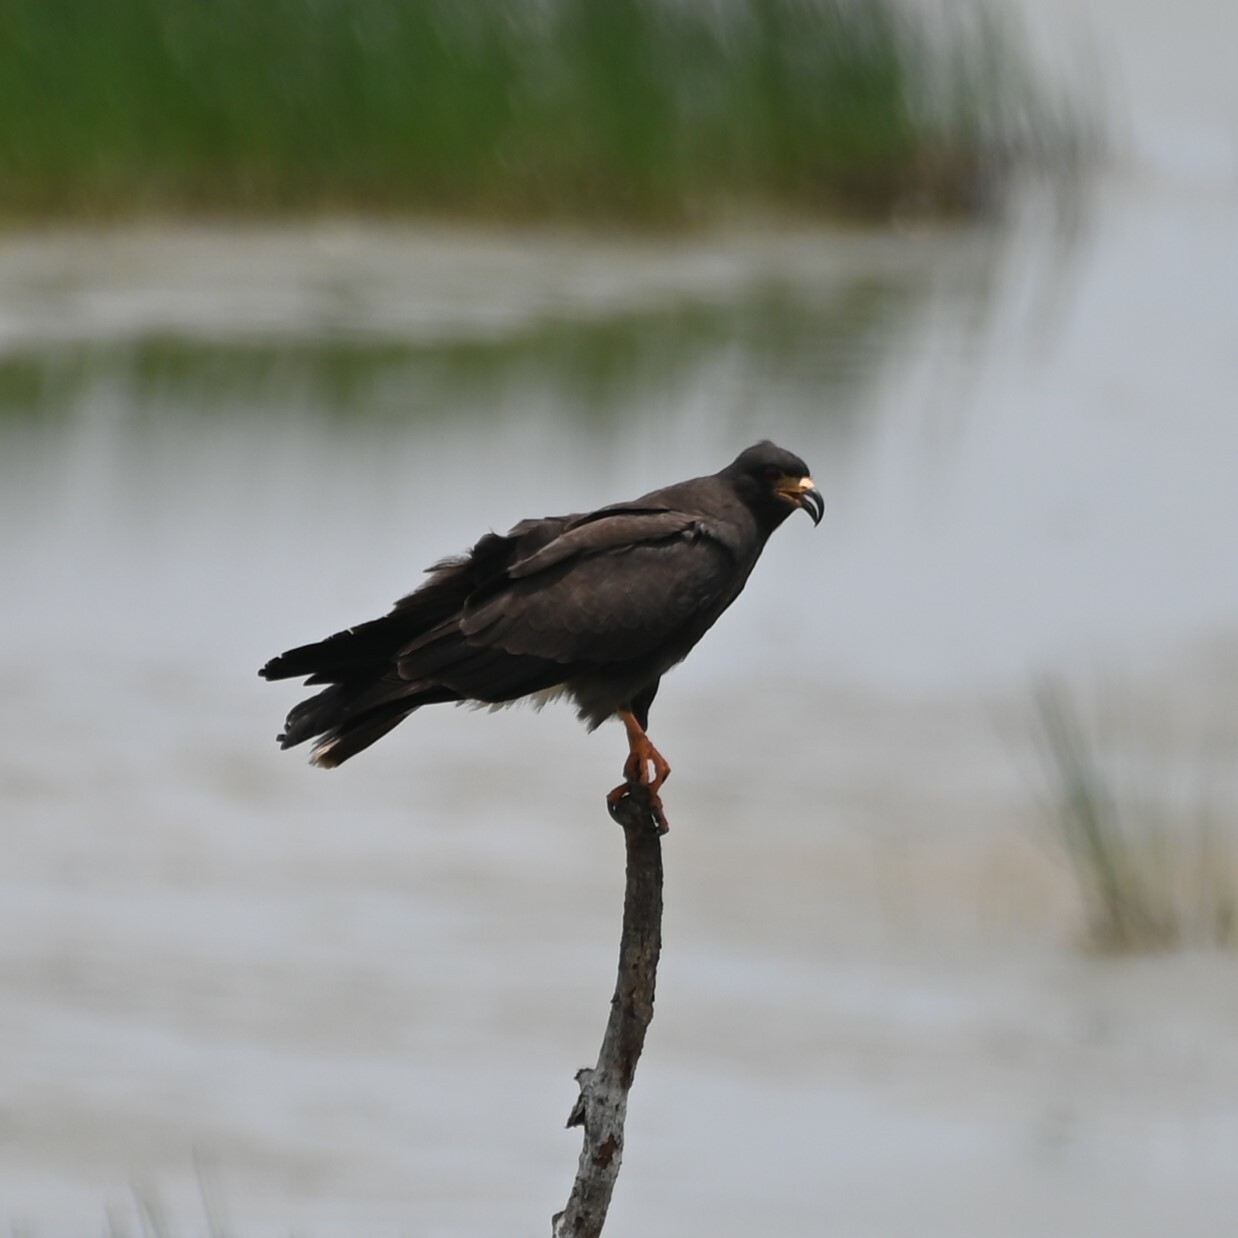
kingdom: Animalia
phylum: Chordata
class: Aves
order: Accipitriformes
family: Accipitridae
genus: Rostrhamus
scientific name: Rostrhamus sociabilis
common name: Snail kite
